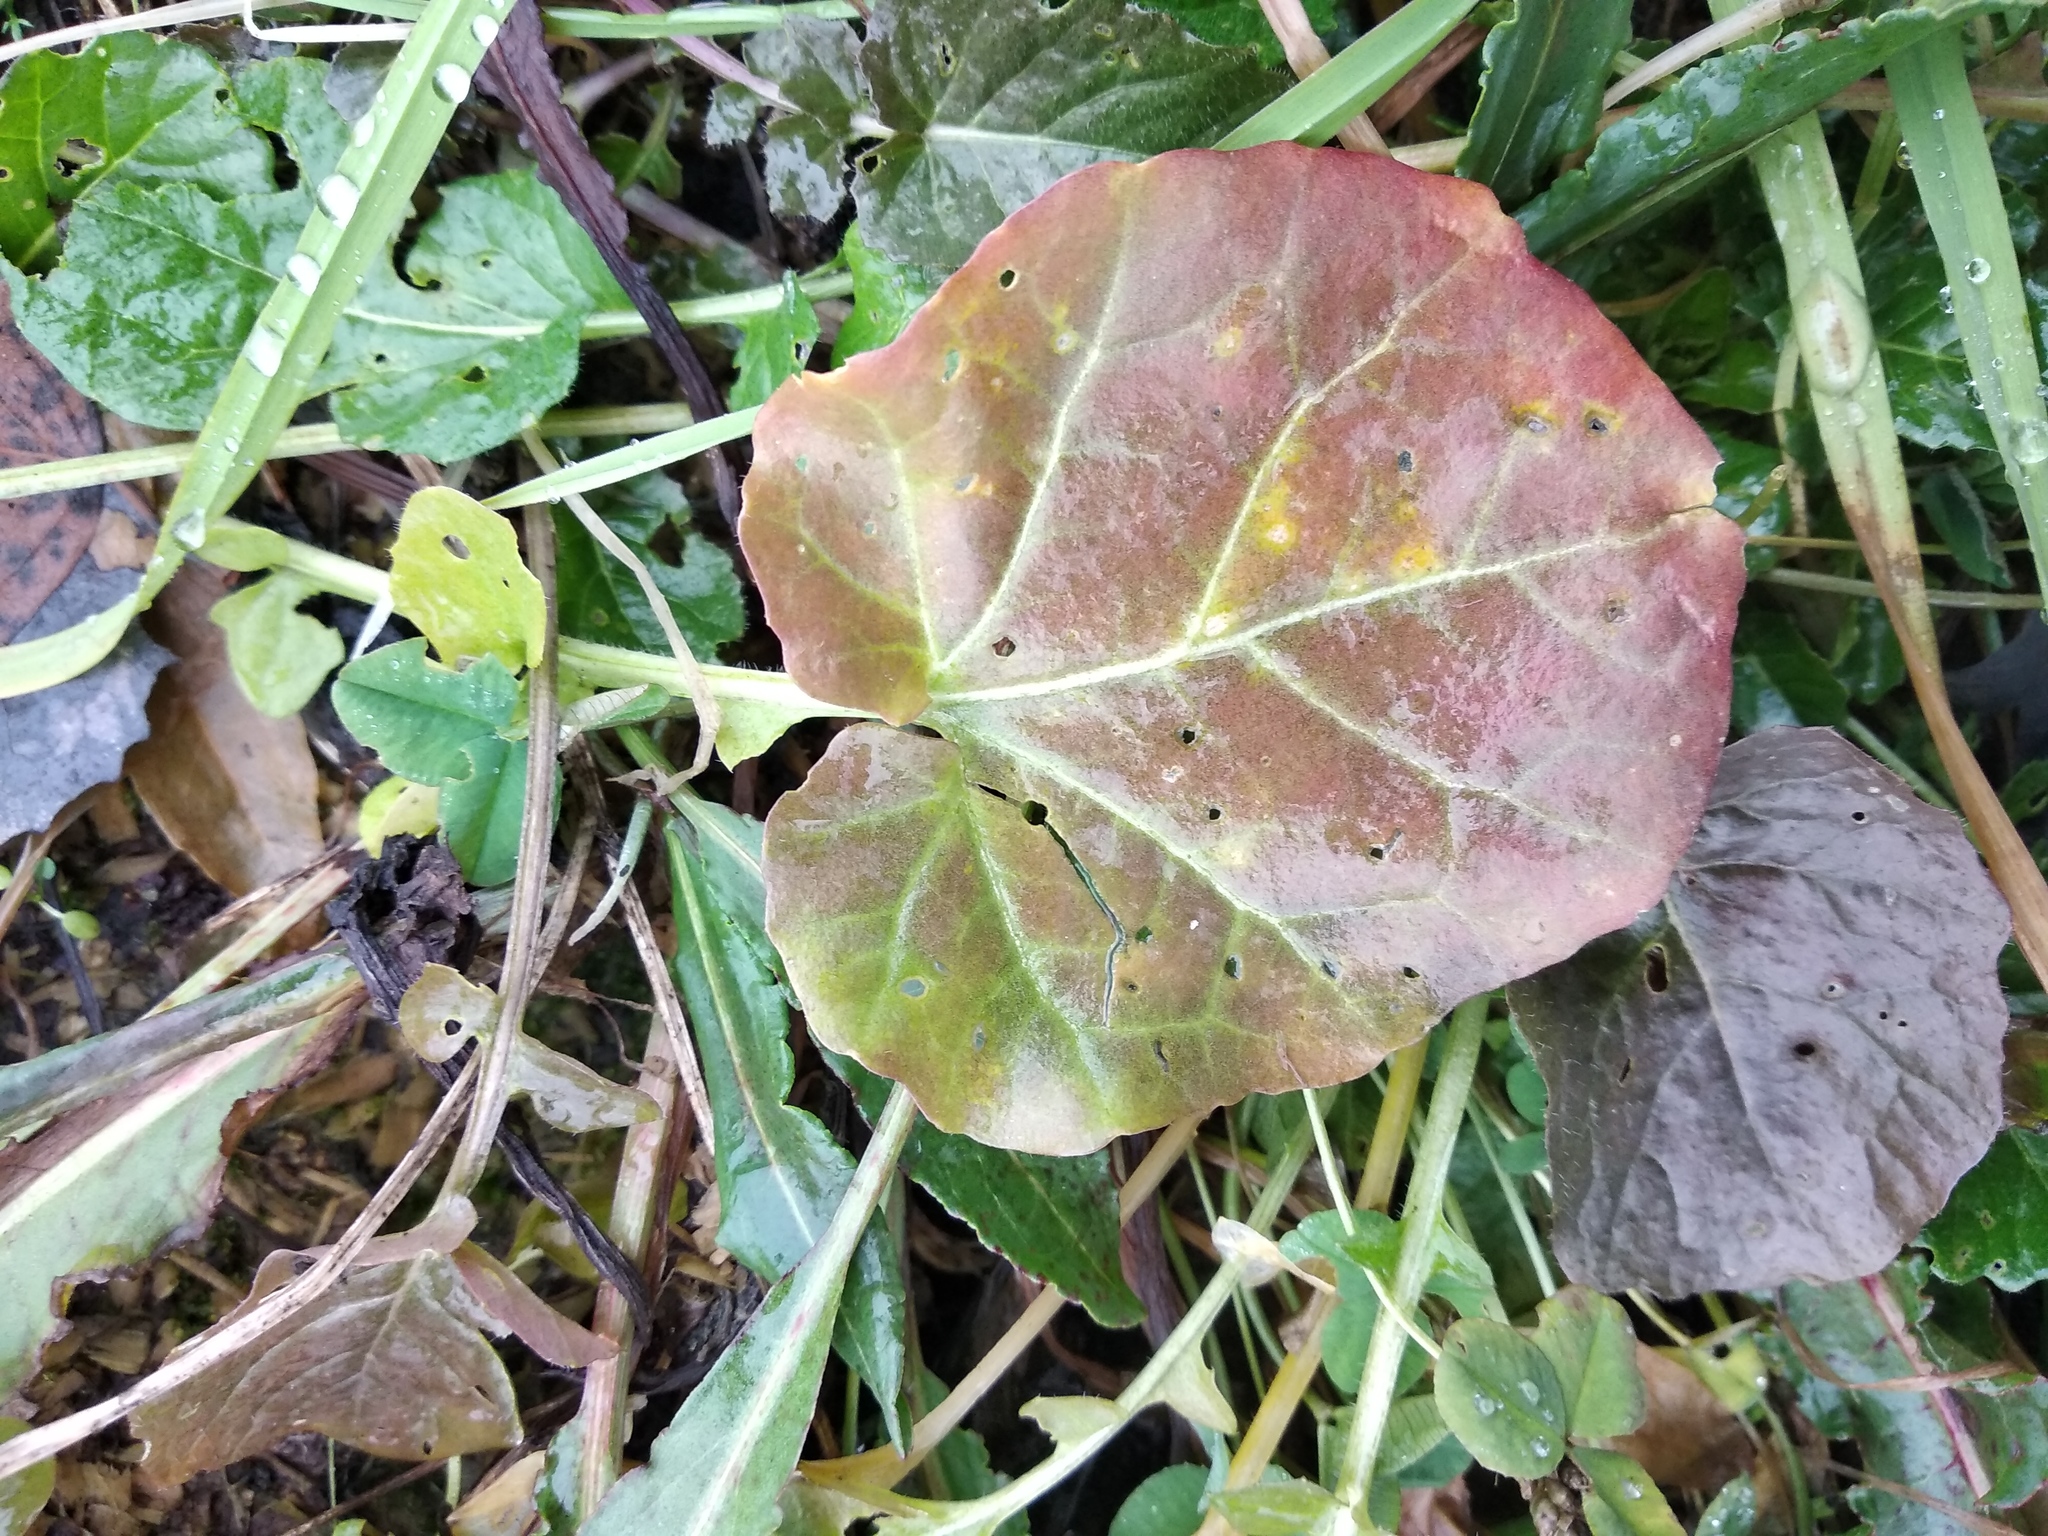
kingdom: Plantae
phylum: Tracheophyta
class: Magnoliopsida
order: Brassicales
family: Brassicaceae
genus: Barbarea
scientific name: Barbarea vulgaris
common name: Cressy-greens
